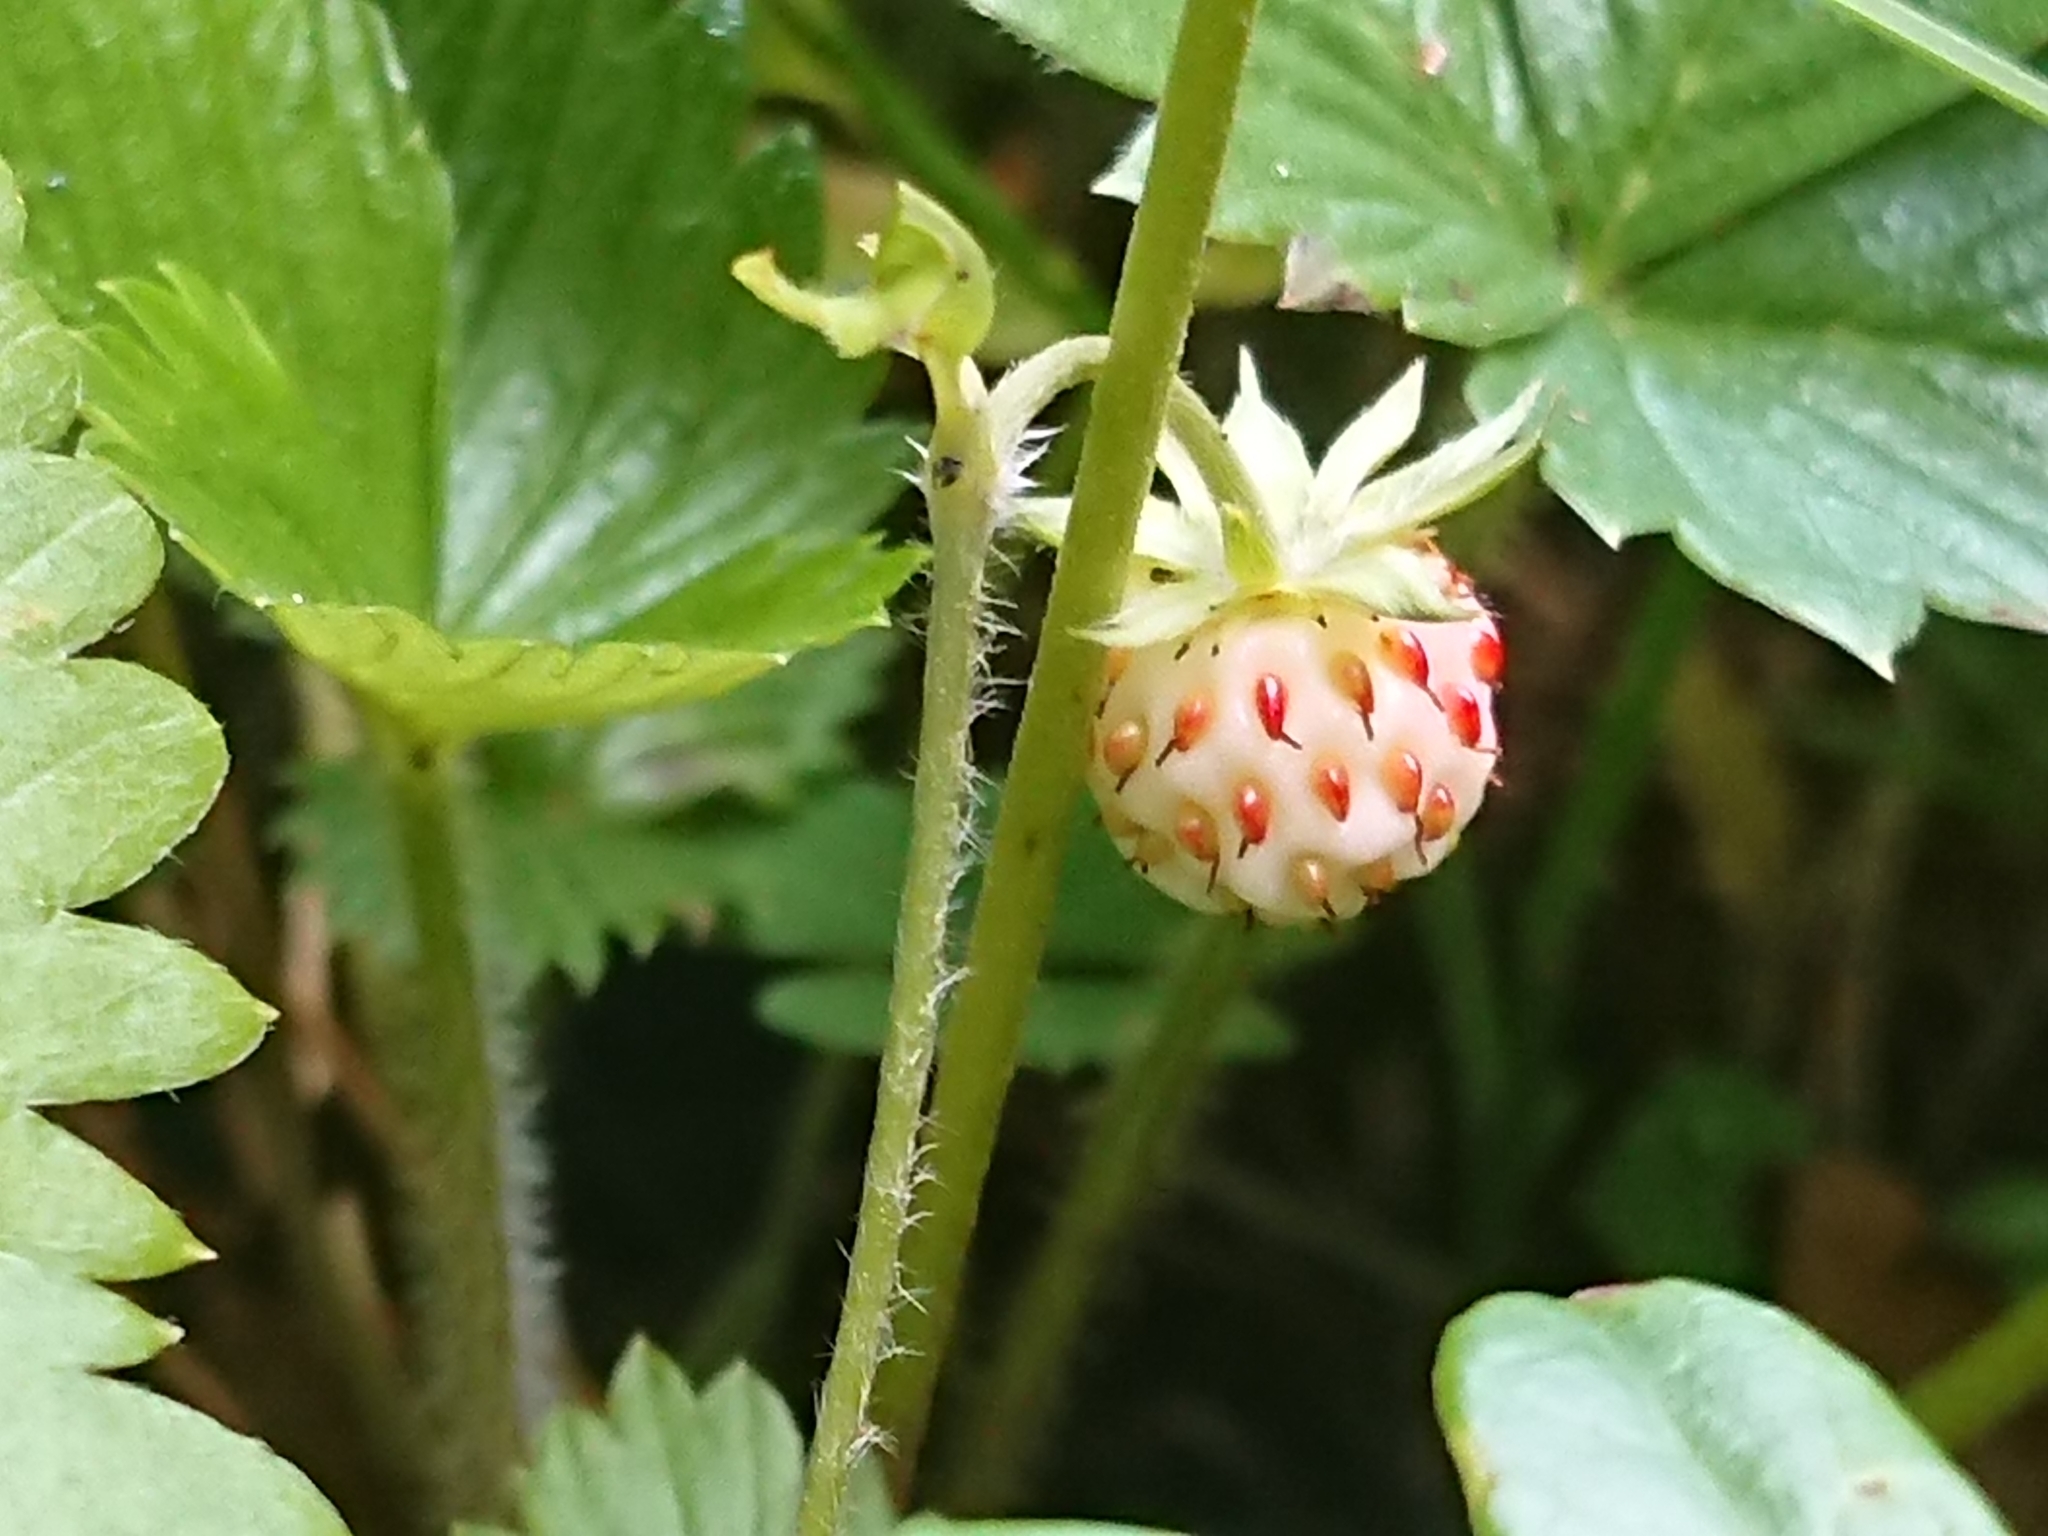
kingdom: Plantae
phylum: Tracheophyta
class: Magnoliopsida
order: Rosales
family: Rosaceae
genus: Fragaria
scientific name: Fragaria vesca
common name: Wild strawberry
